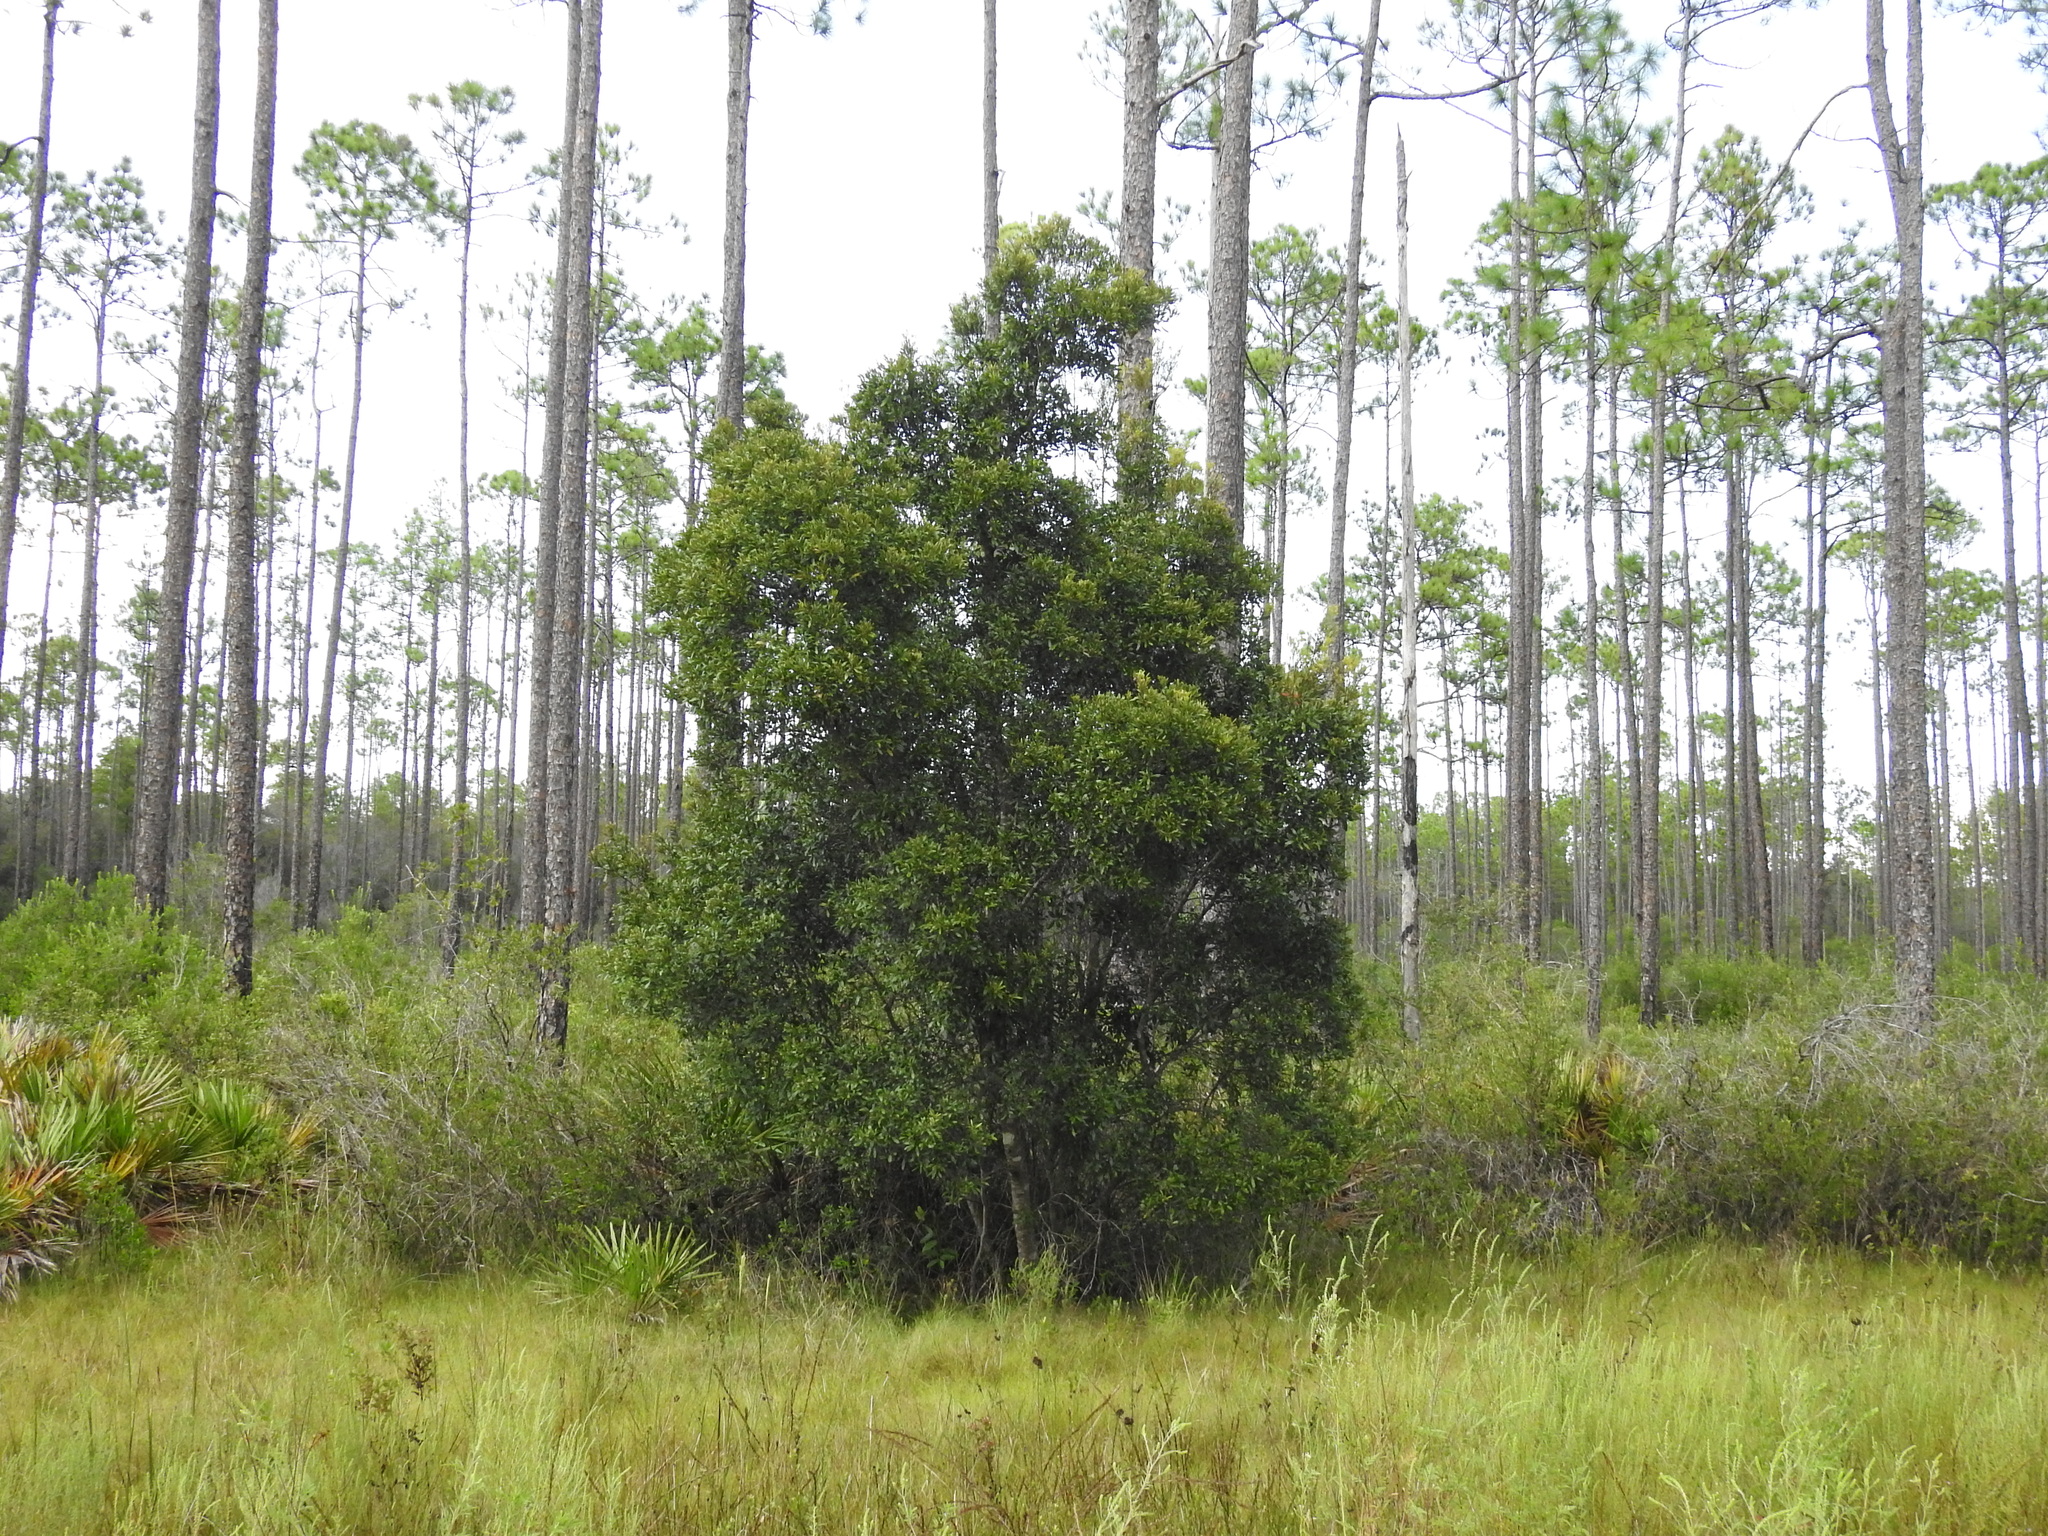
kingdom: Plantae
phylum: Tracheophyta
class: Magnoliopsida
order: Fagales
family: Myricaceae
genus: Morella
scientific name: Morella cerifera
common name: Wax myrtle
